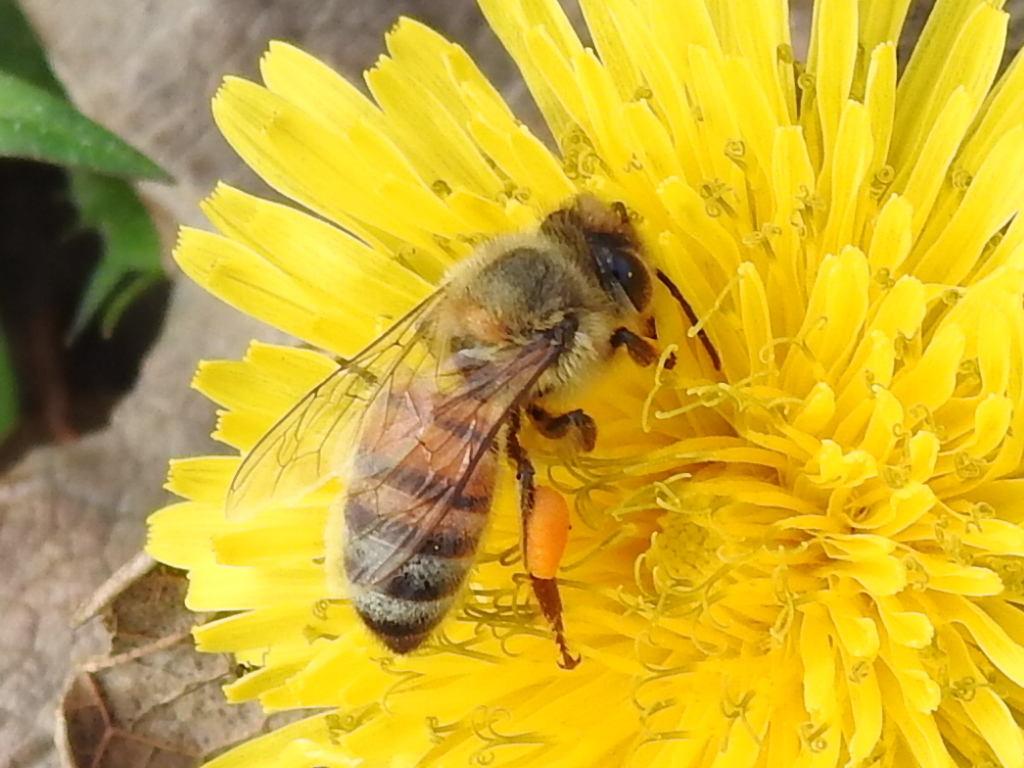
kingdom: Animalia
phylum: Arthropoda
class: Insecta
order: Hymenoptera
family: Apidae
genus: Apis
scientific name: Apis mellifera
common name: Honey bee
